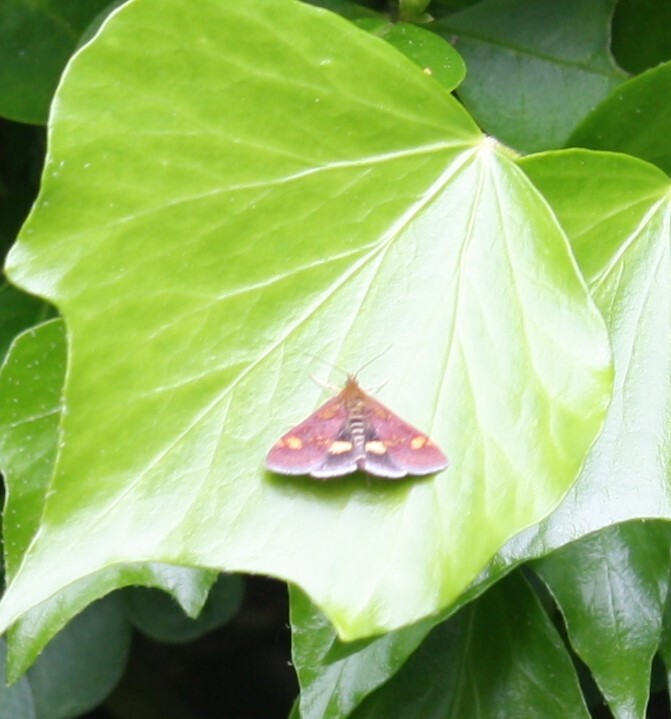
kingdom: Animalia
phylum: Arthropoda
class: Insecta
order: Lepidoptera
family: Crambidae
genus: Pyrausta
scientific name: Pyrausta aurata
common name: Small purple & gold
